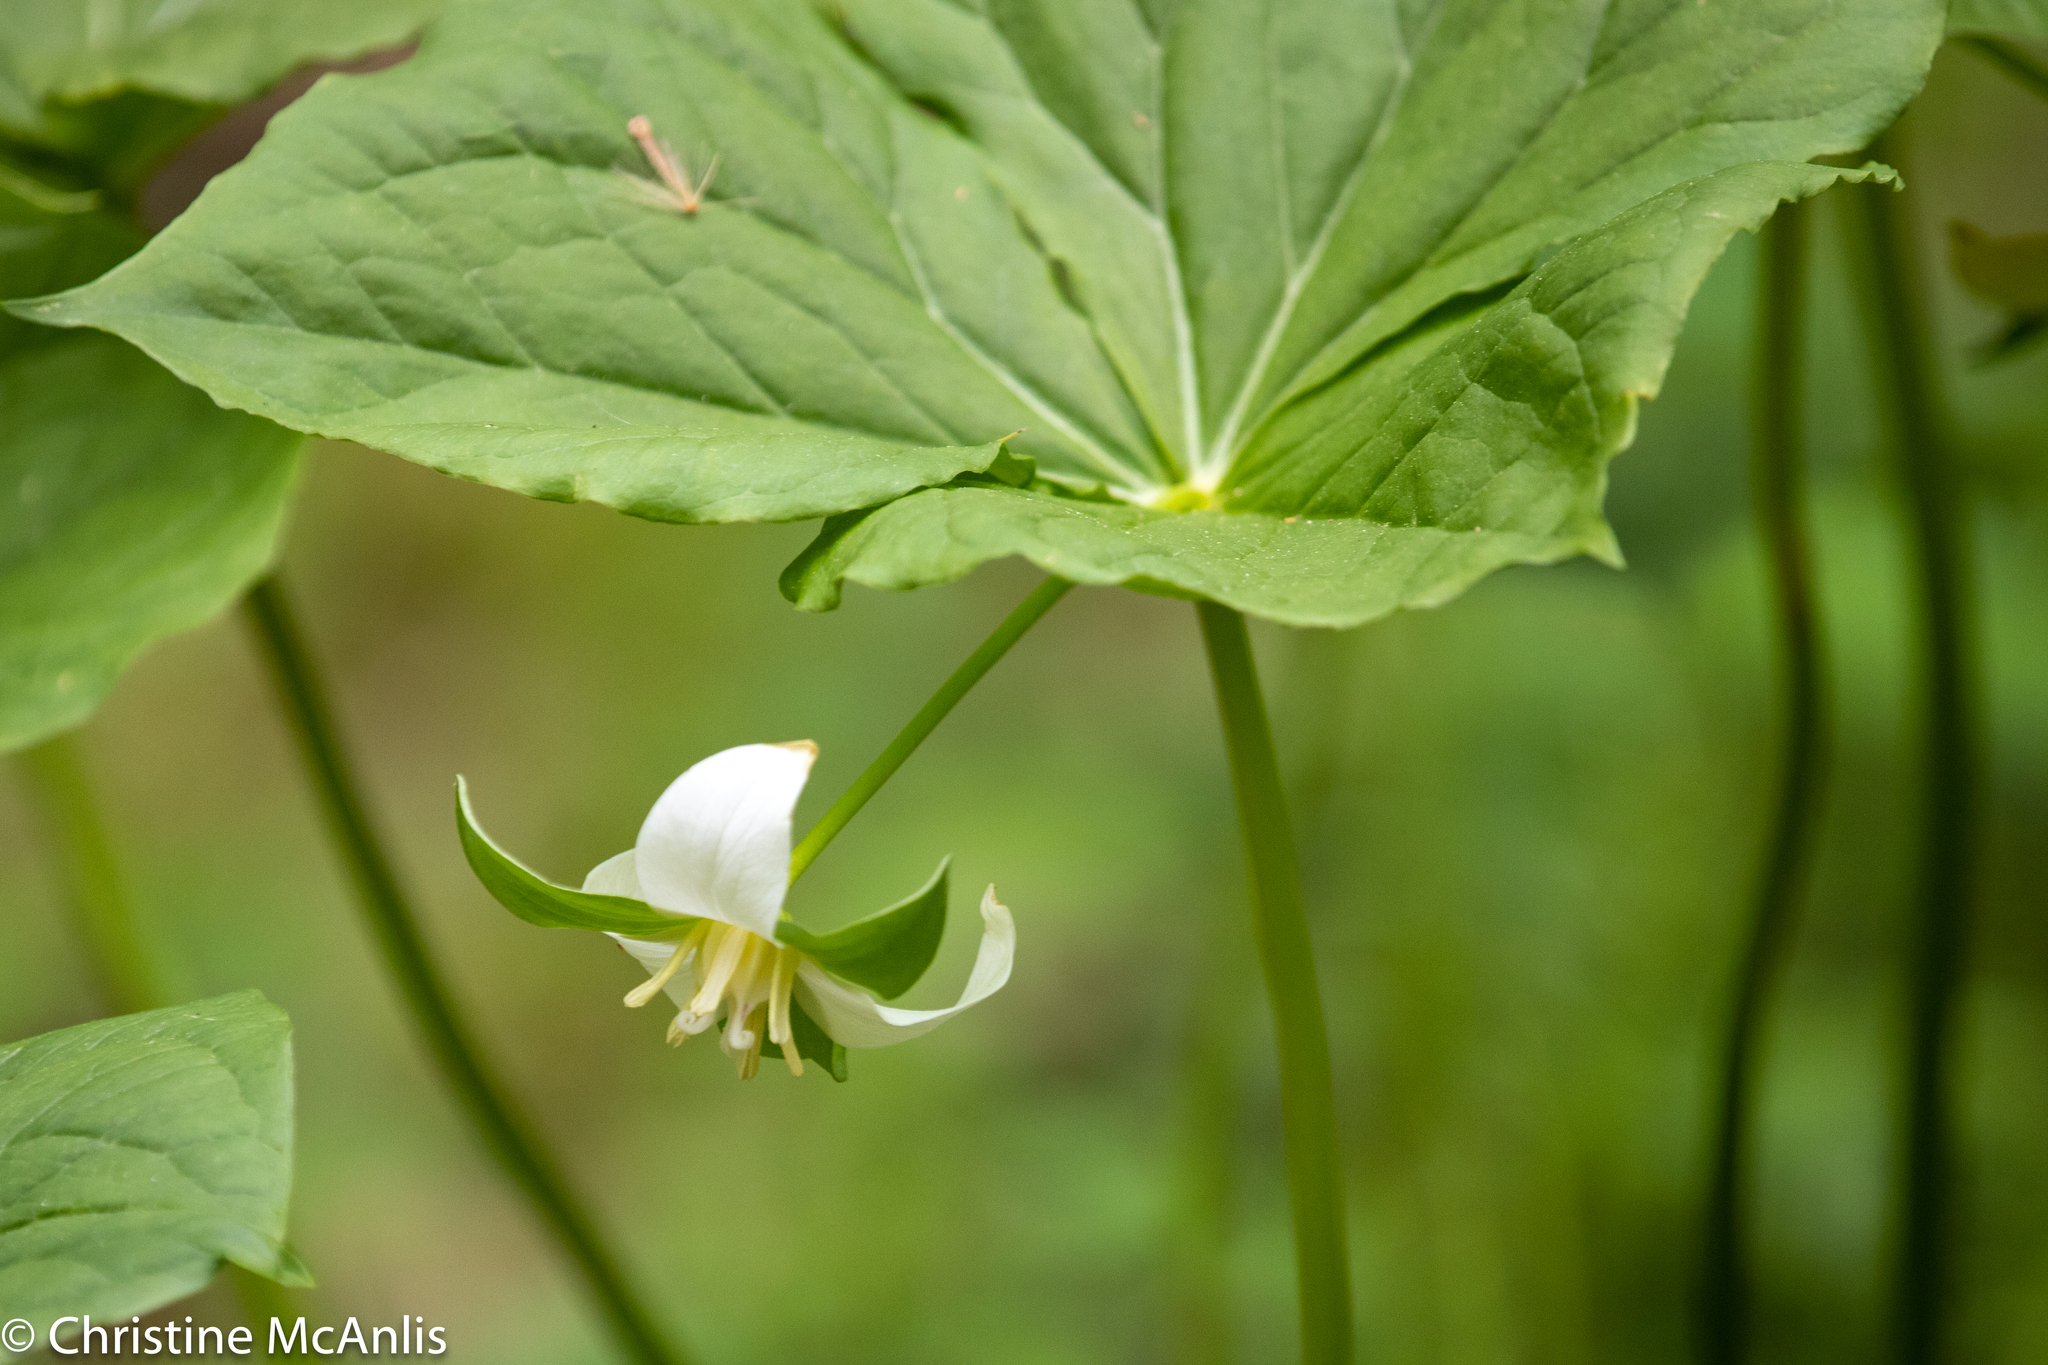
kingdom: Plantae
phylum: Tracheophyta
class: Liliopsida
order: Liliales
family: Melanthiaceae
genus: Trillium
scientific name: Trillium flexipes
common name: Drooping trillium
